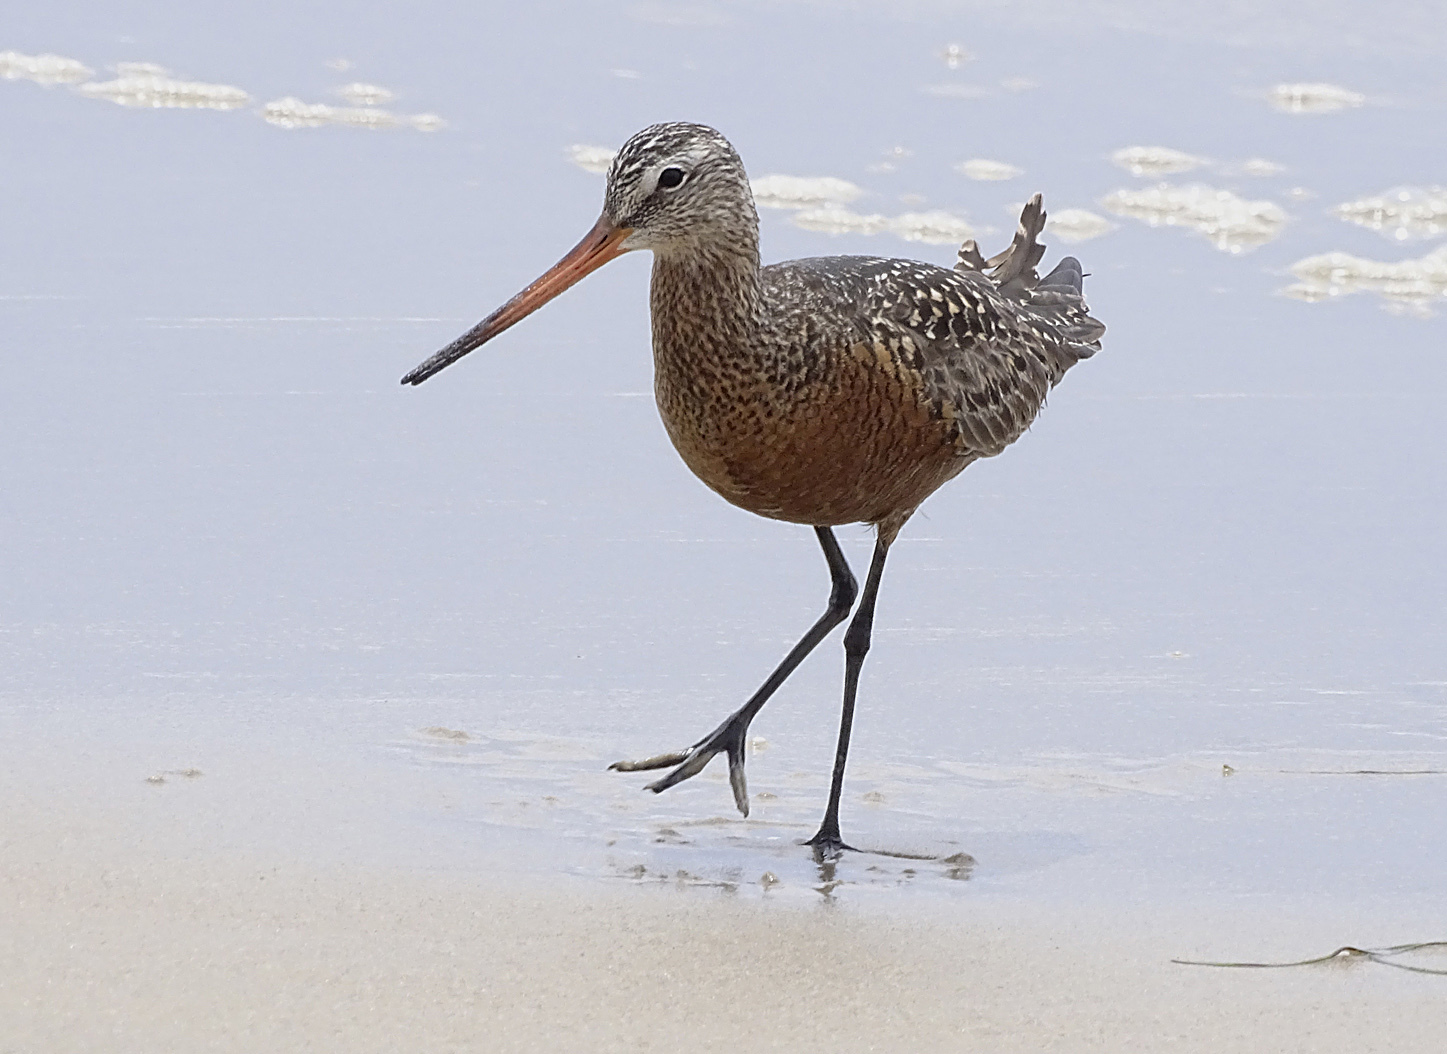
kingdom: Animalia
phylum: Chordata
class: Aves
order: Charadriiformes
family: Scolopacidae
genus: Limosa
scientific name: Limosa haemastica
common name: Hudsonian godwit
